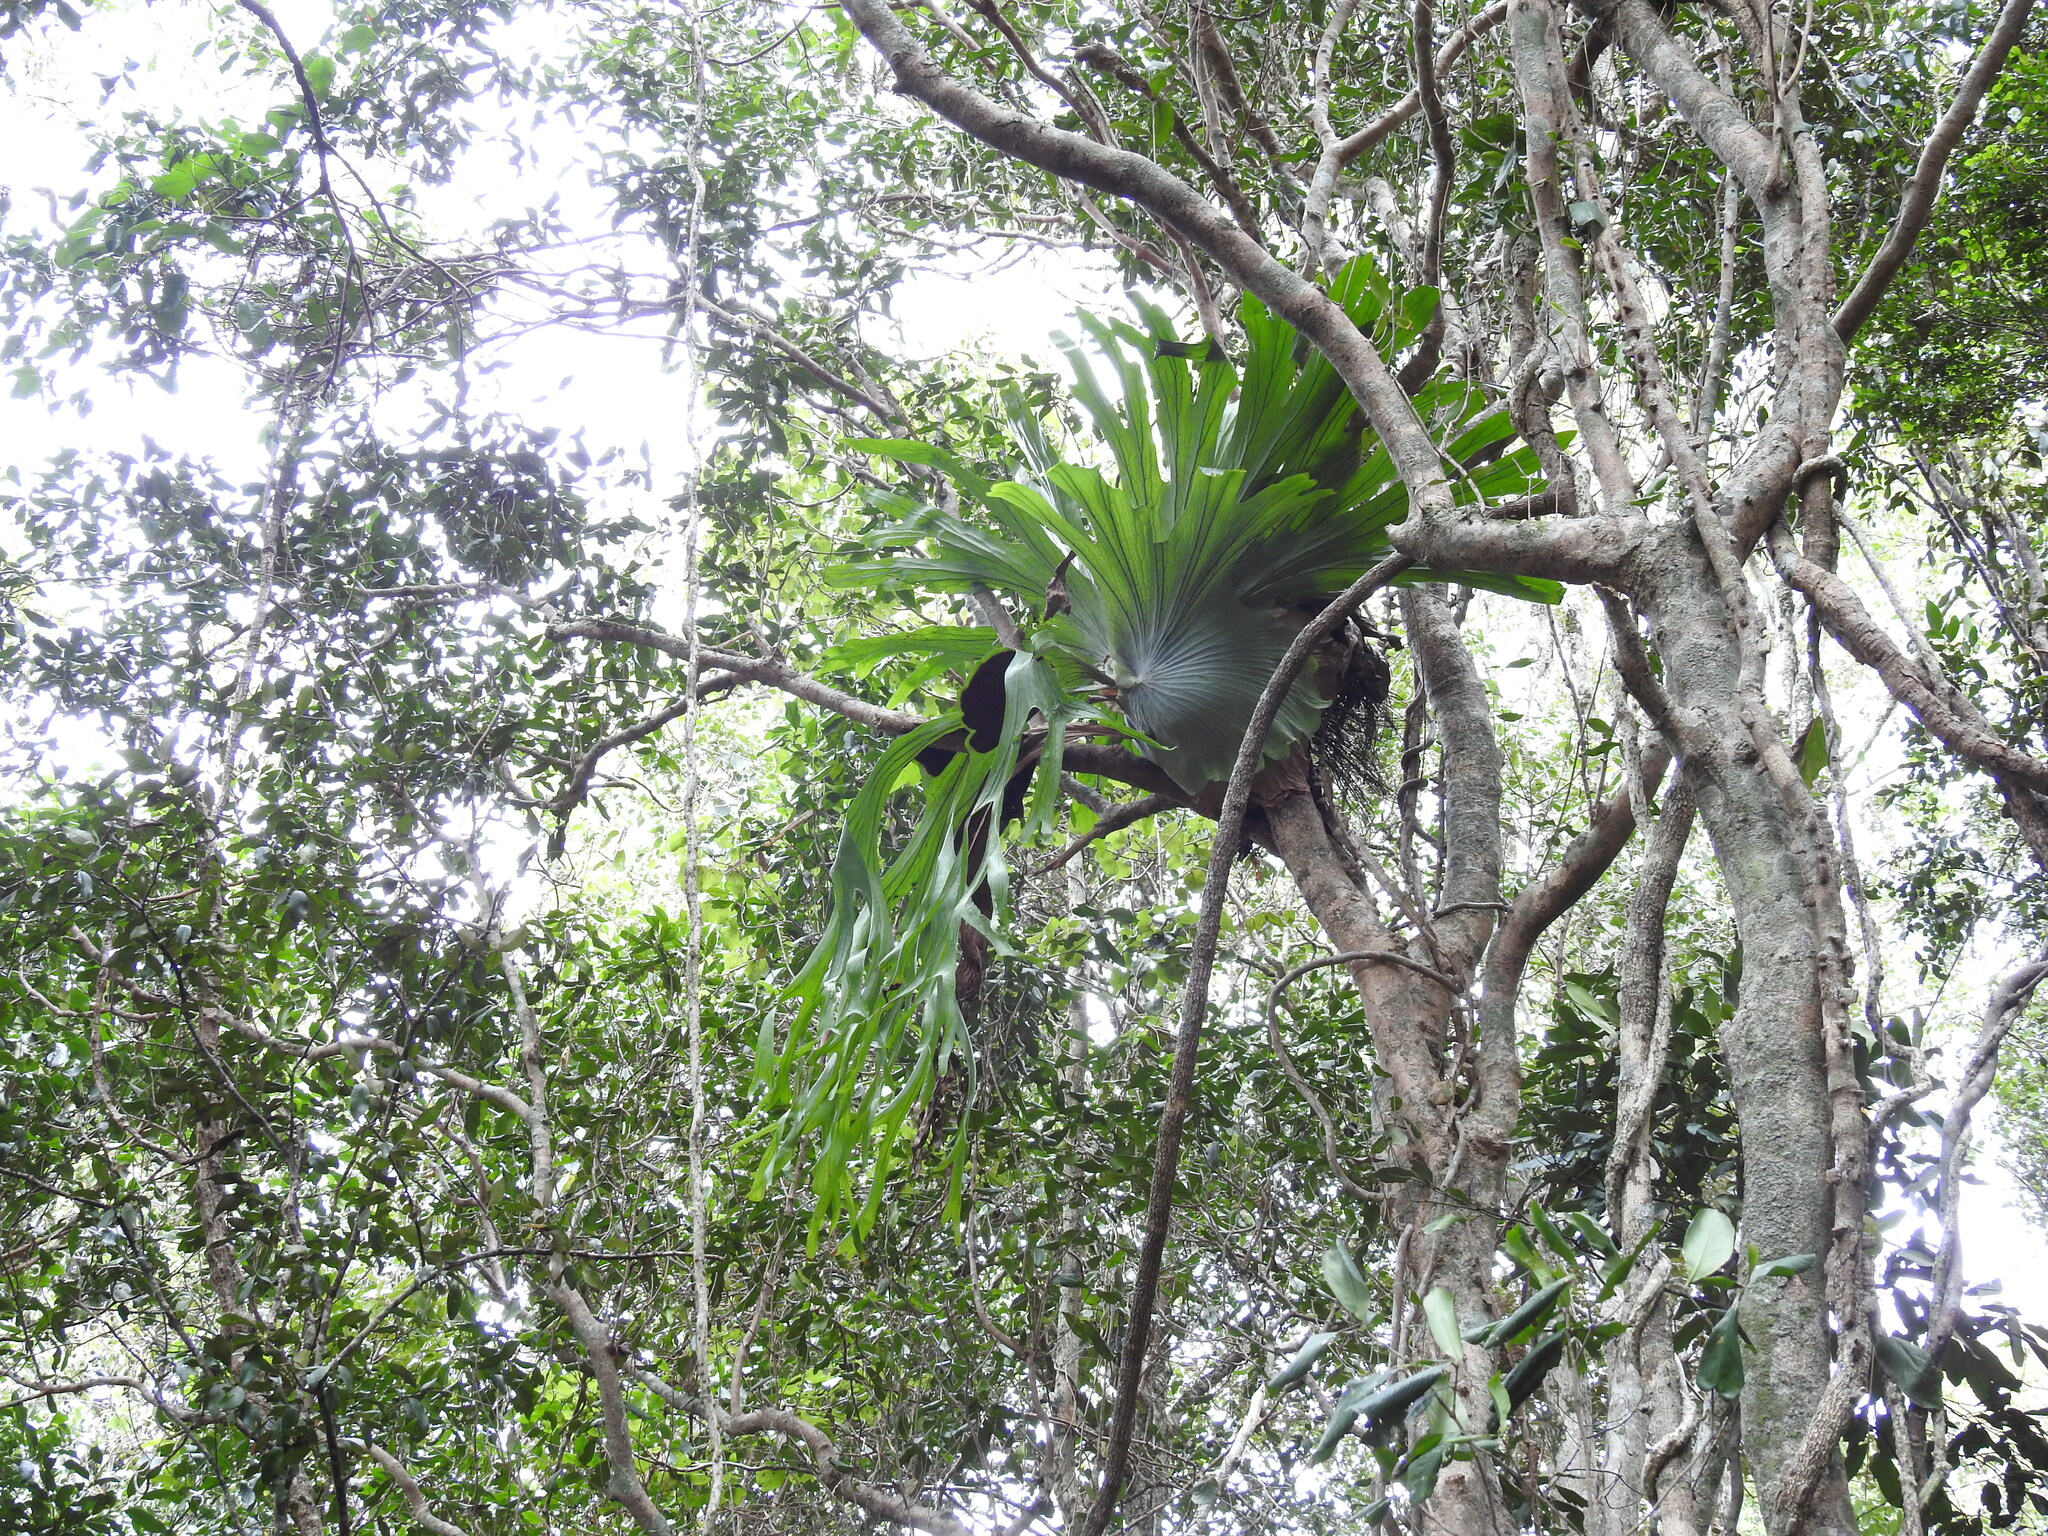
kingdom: Plantae
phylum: Tracheophyta
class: Polypodiopsida
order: Polypodiales
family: Polypodiaceae
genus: Platycerium
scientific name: Platycerium superbum
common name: Staghorn fern
